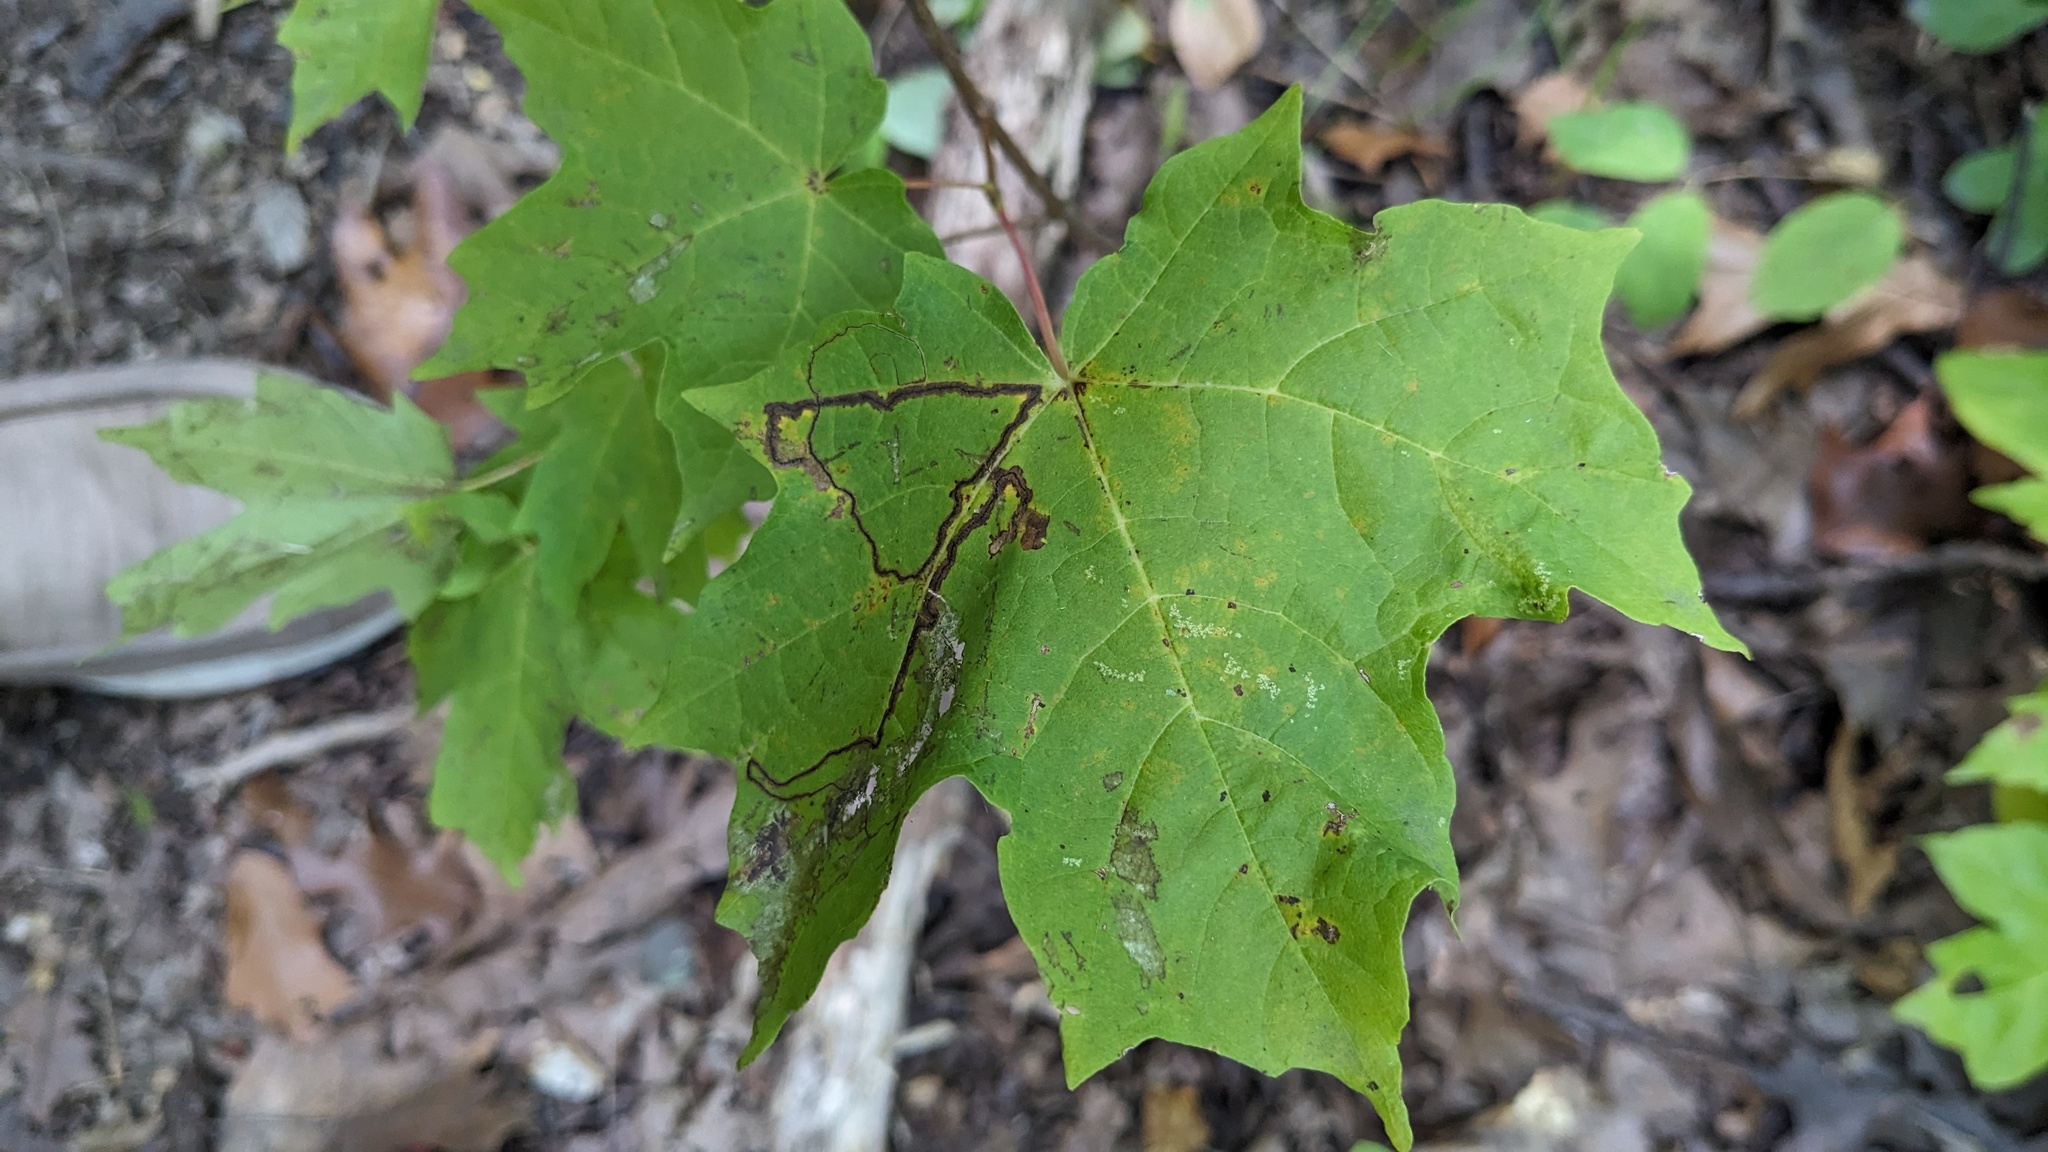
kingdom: Animalia
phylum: Arthropoda
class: Insecta
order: Lepidoptera
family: Nepticulidae
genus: Glaucolepis
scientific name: Glaucolepis saccharella
